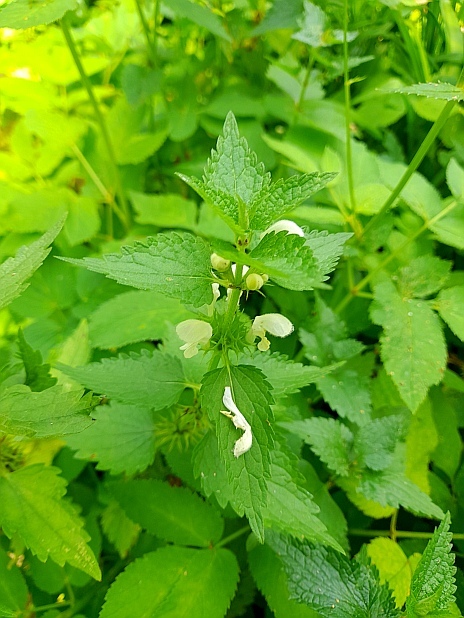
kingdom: Plantae
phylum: Tracheophyta
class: Magnoliopsida
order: Lamiales
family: Lamiaceae
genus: Lamium
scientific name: Lamium album
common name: White dead-nettle
